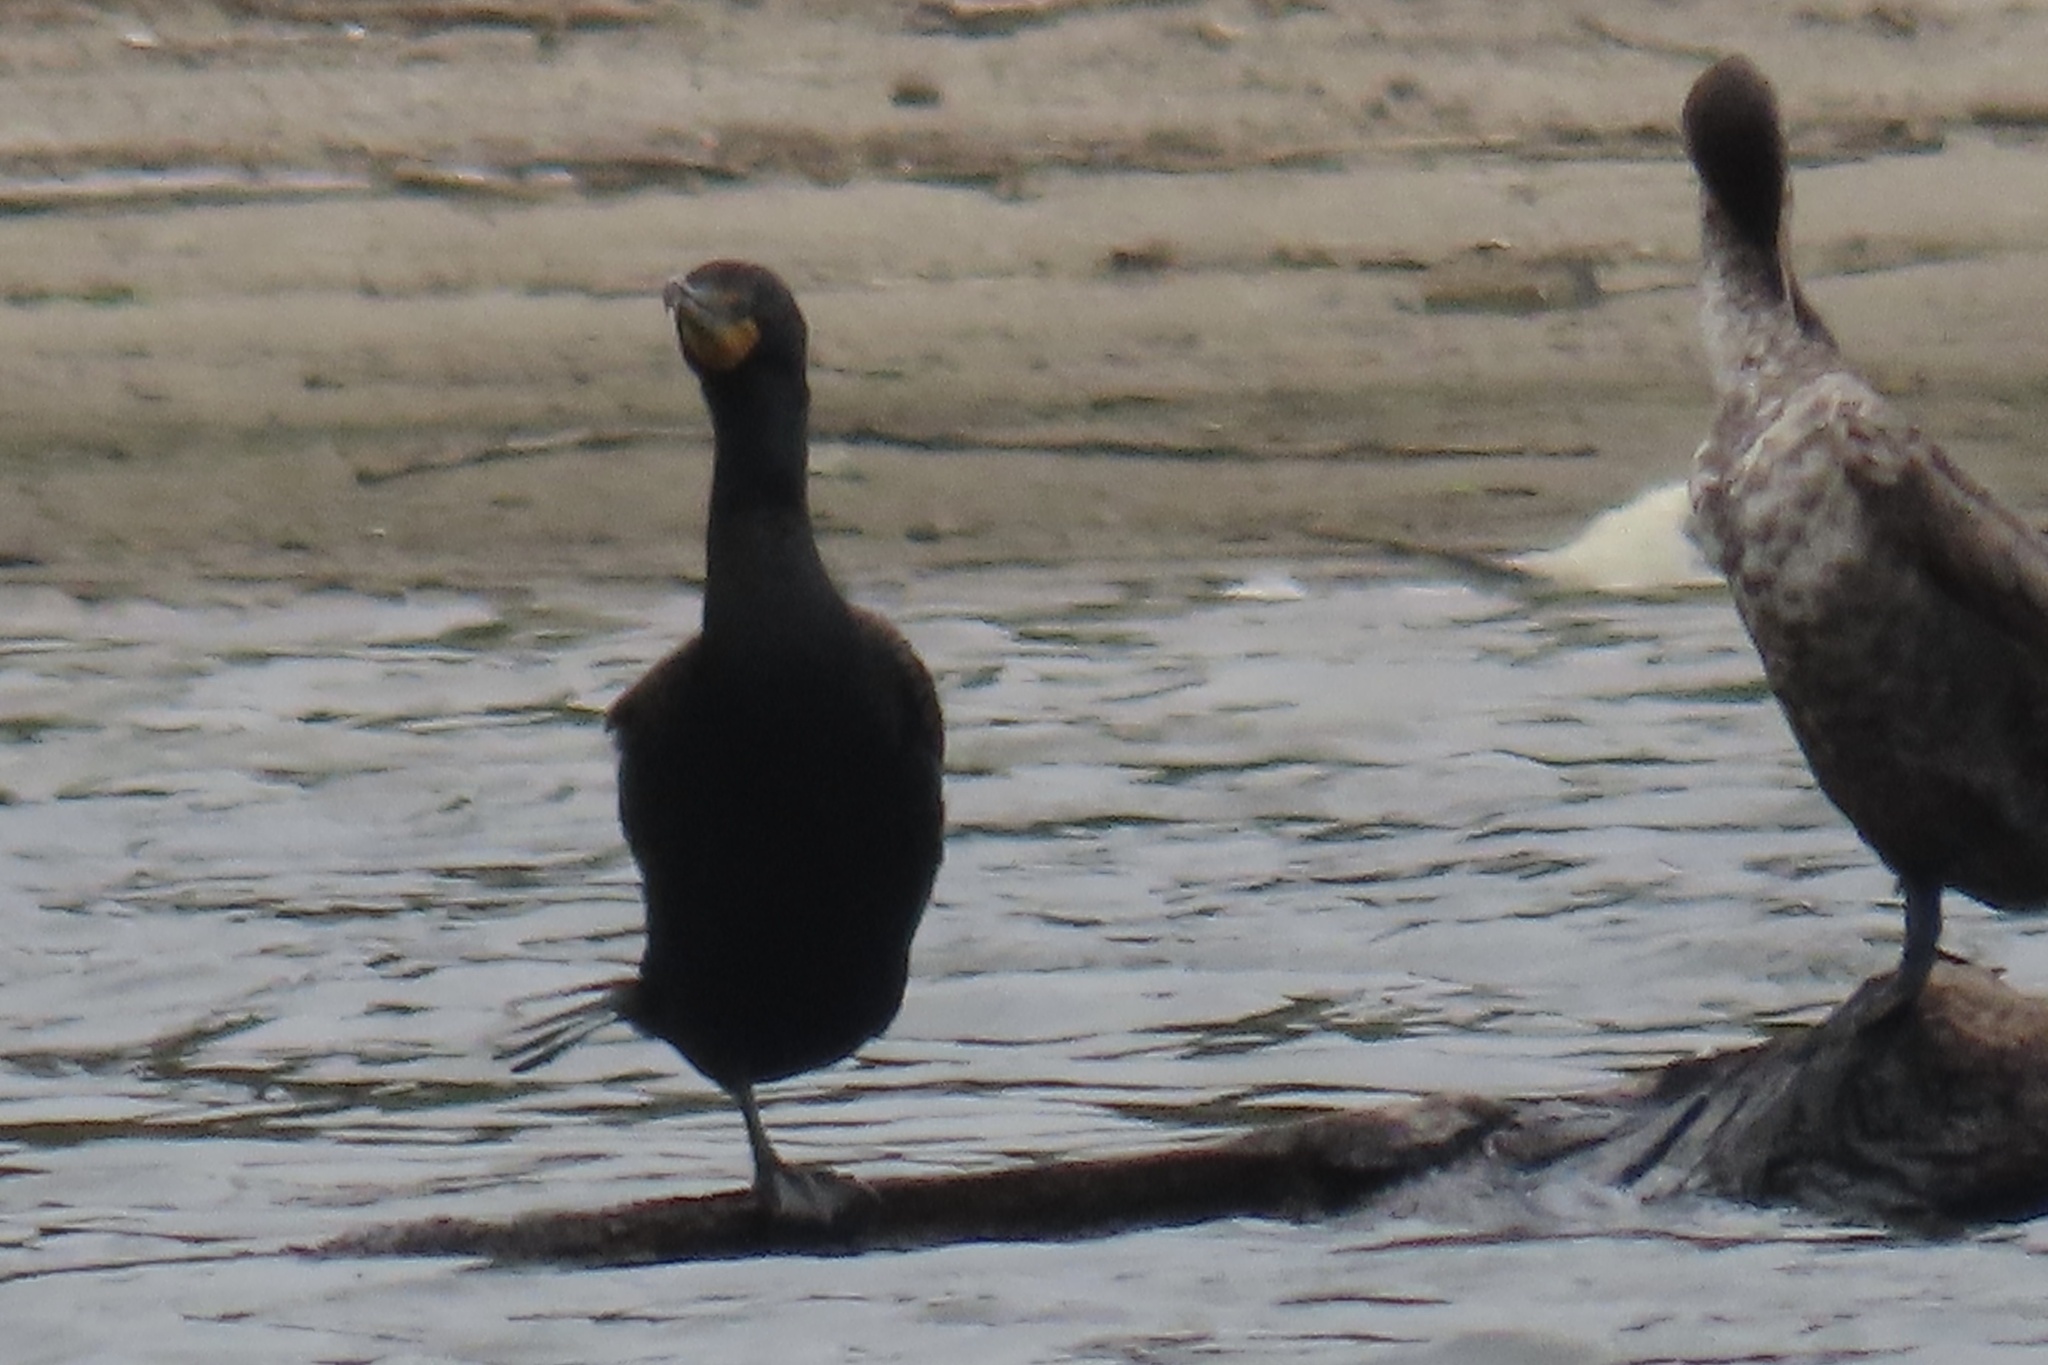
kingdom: Animalia
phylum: Chordata
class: Aves
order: Suliformes
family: Phalacrocoracidae
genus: Phalacrocorax
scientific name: Phalacrocorax auritus
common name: Double-crested cormorant
